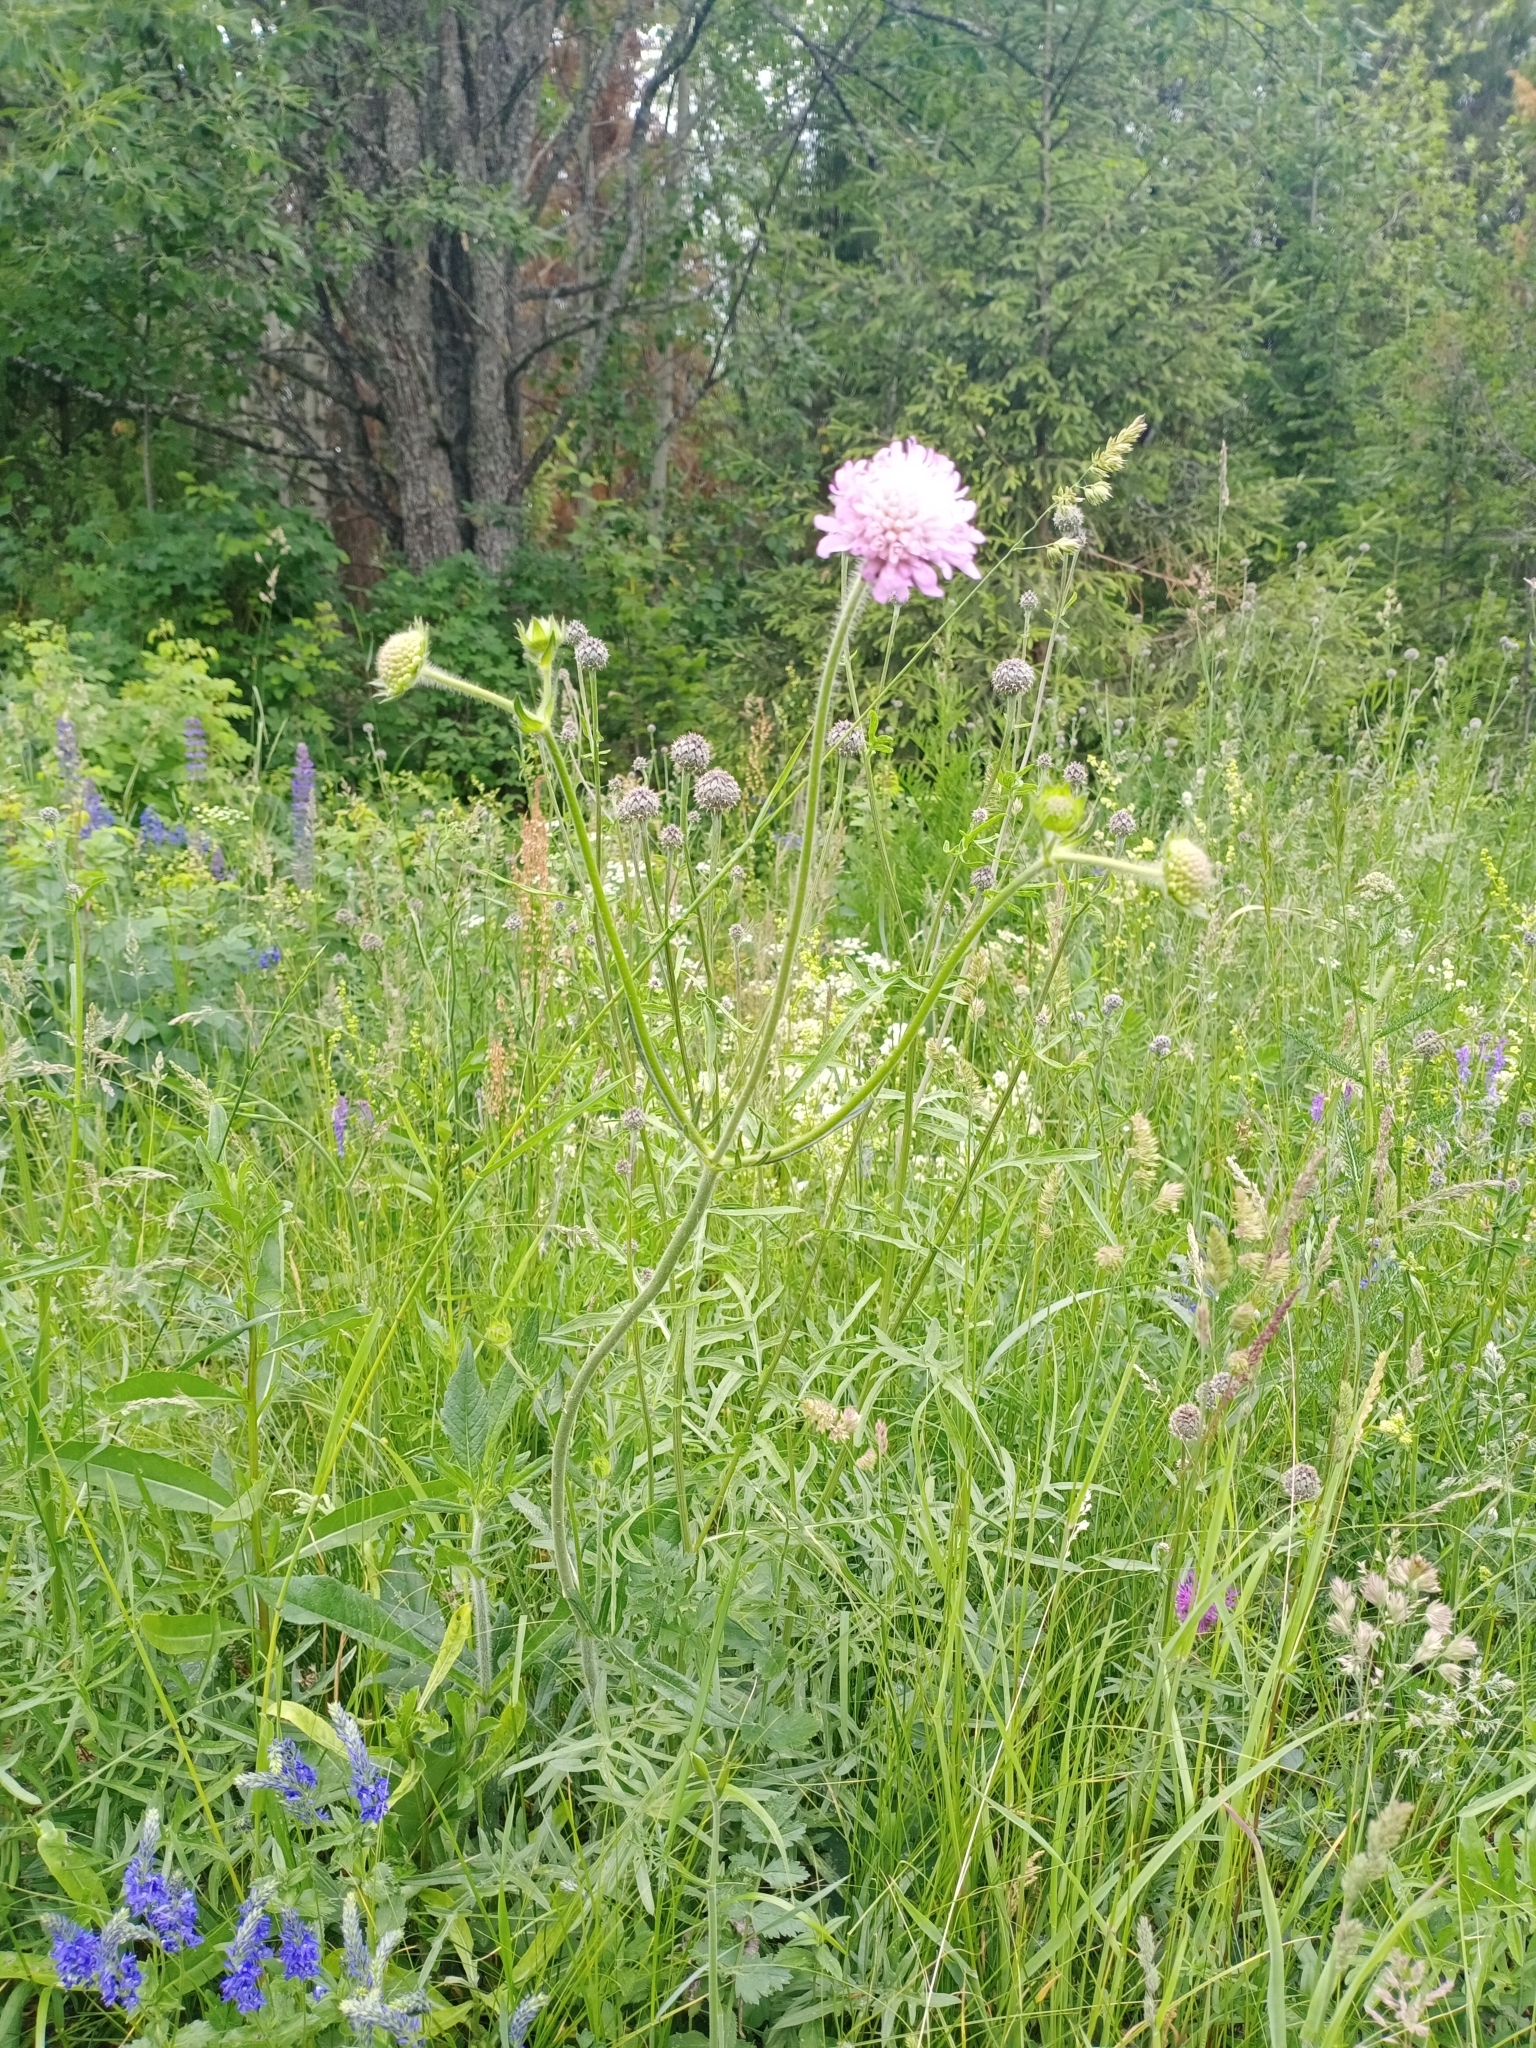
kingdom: Plantae
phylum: Tracheophyta
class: Magnoliopsida
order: Dipsacales
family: Caprifoliaceae
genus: Knautia
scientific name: Knautia arvensis
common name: Field scabiosa
